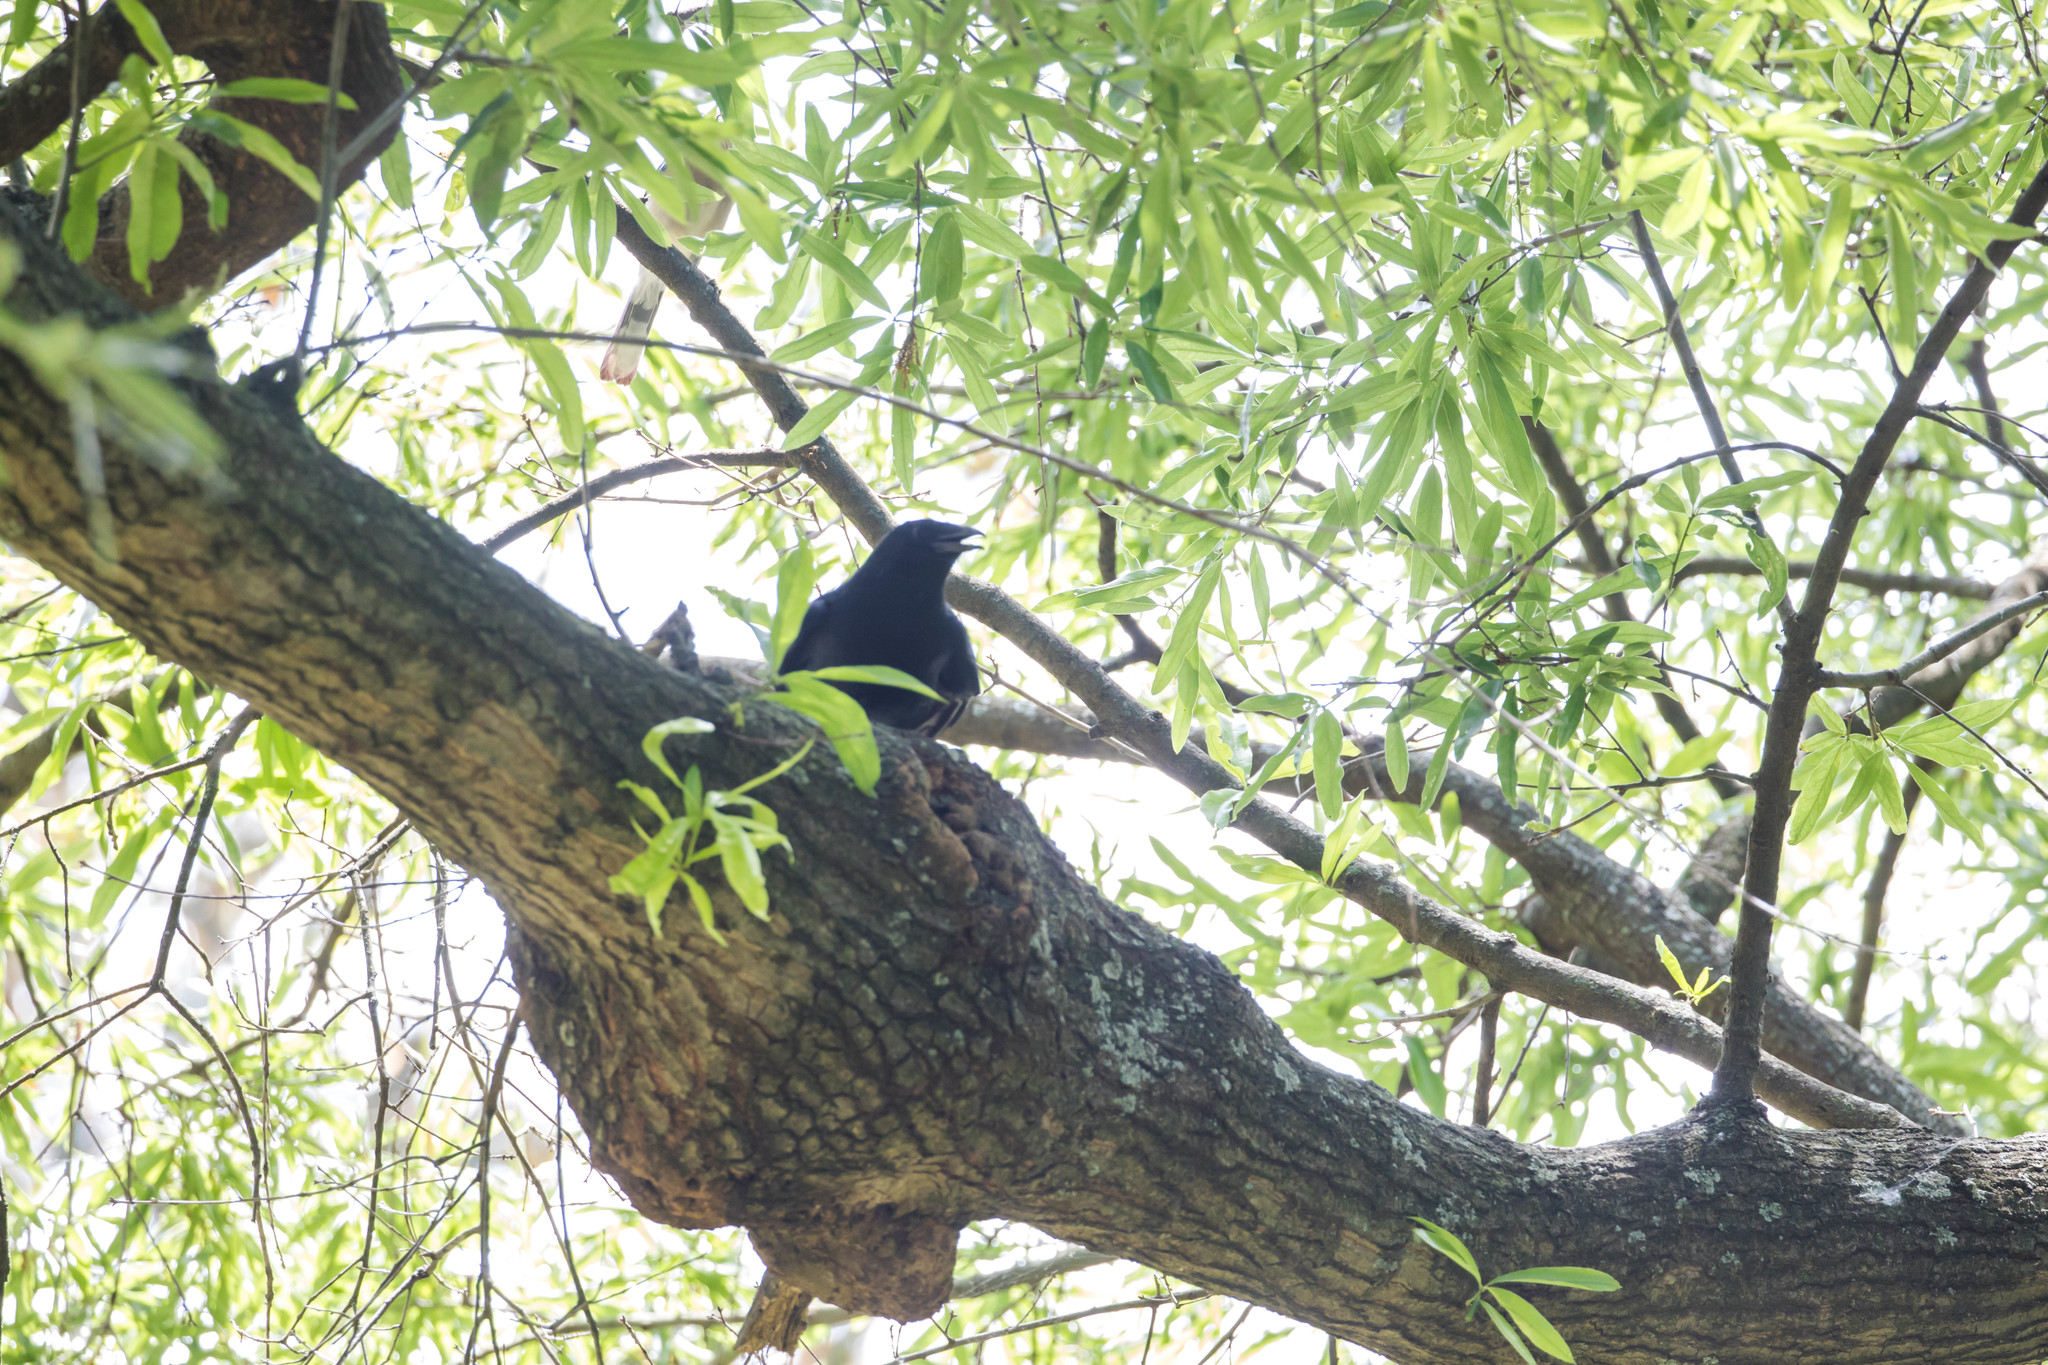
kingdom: Animalia
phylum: Chordata
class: Aves
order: Passeriformes
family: Corvidae
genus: Corvus
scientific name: Corvus ossifragus
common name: Fish crow
